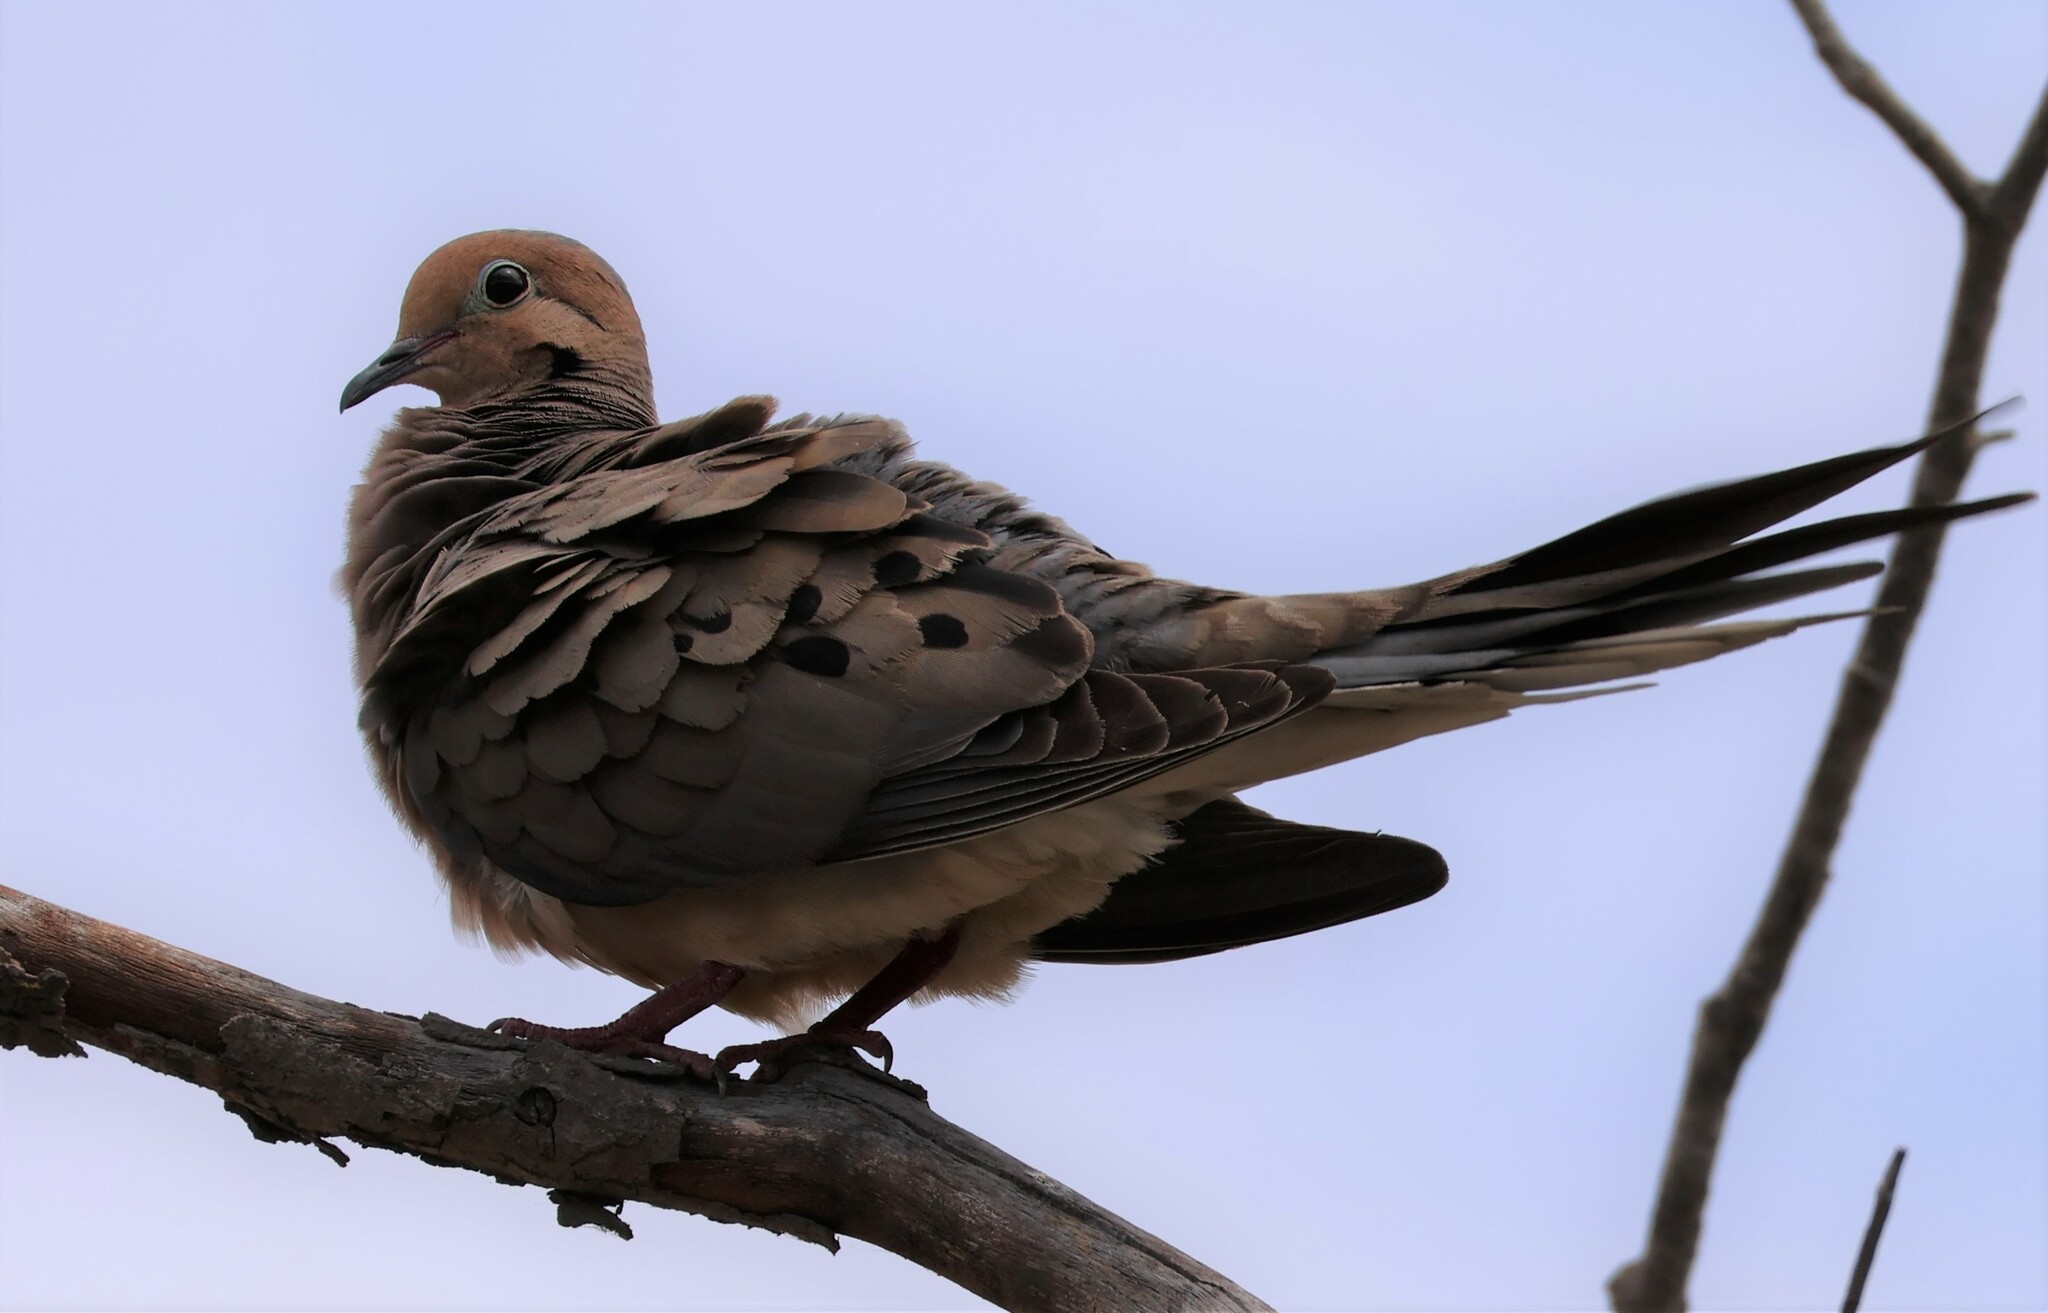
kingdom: Animalia
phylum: Chordata
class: Aves
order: Columbiformes
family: Columbidae
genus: Zenaida
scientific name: Zenaida macroura
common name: Mourning dove
